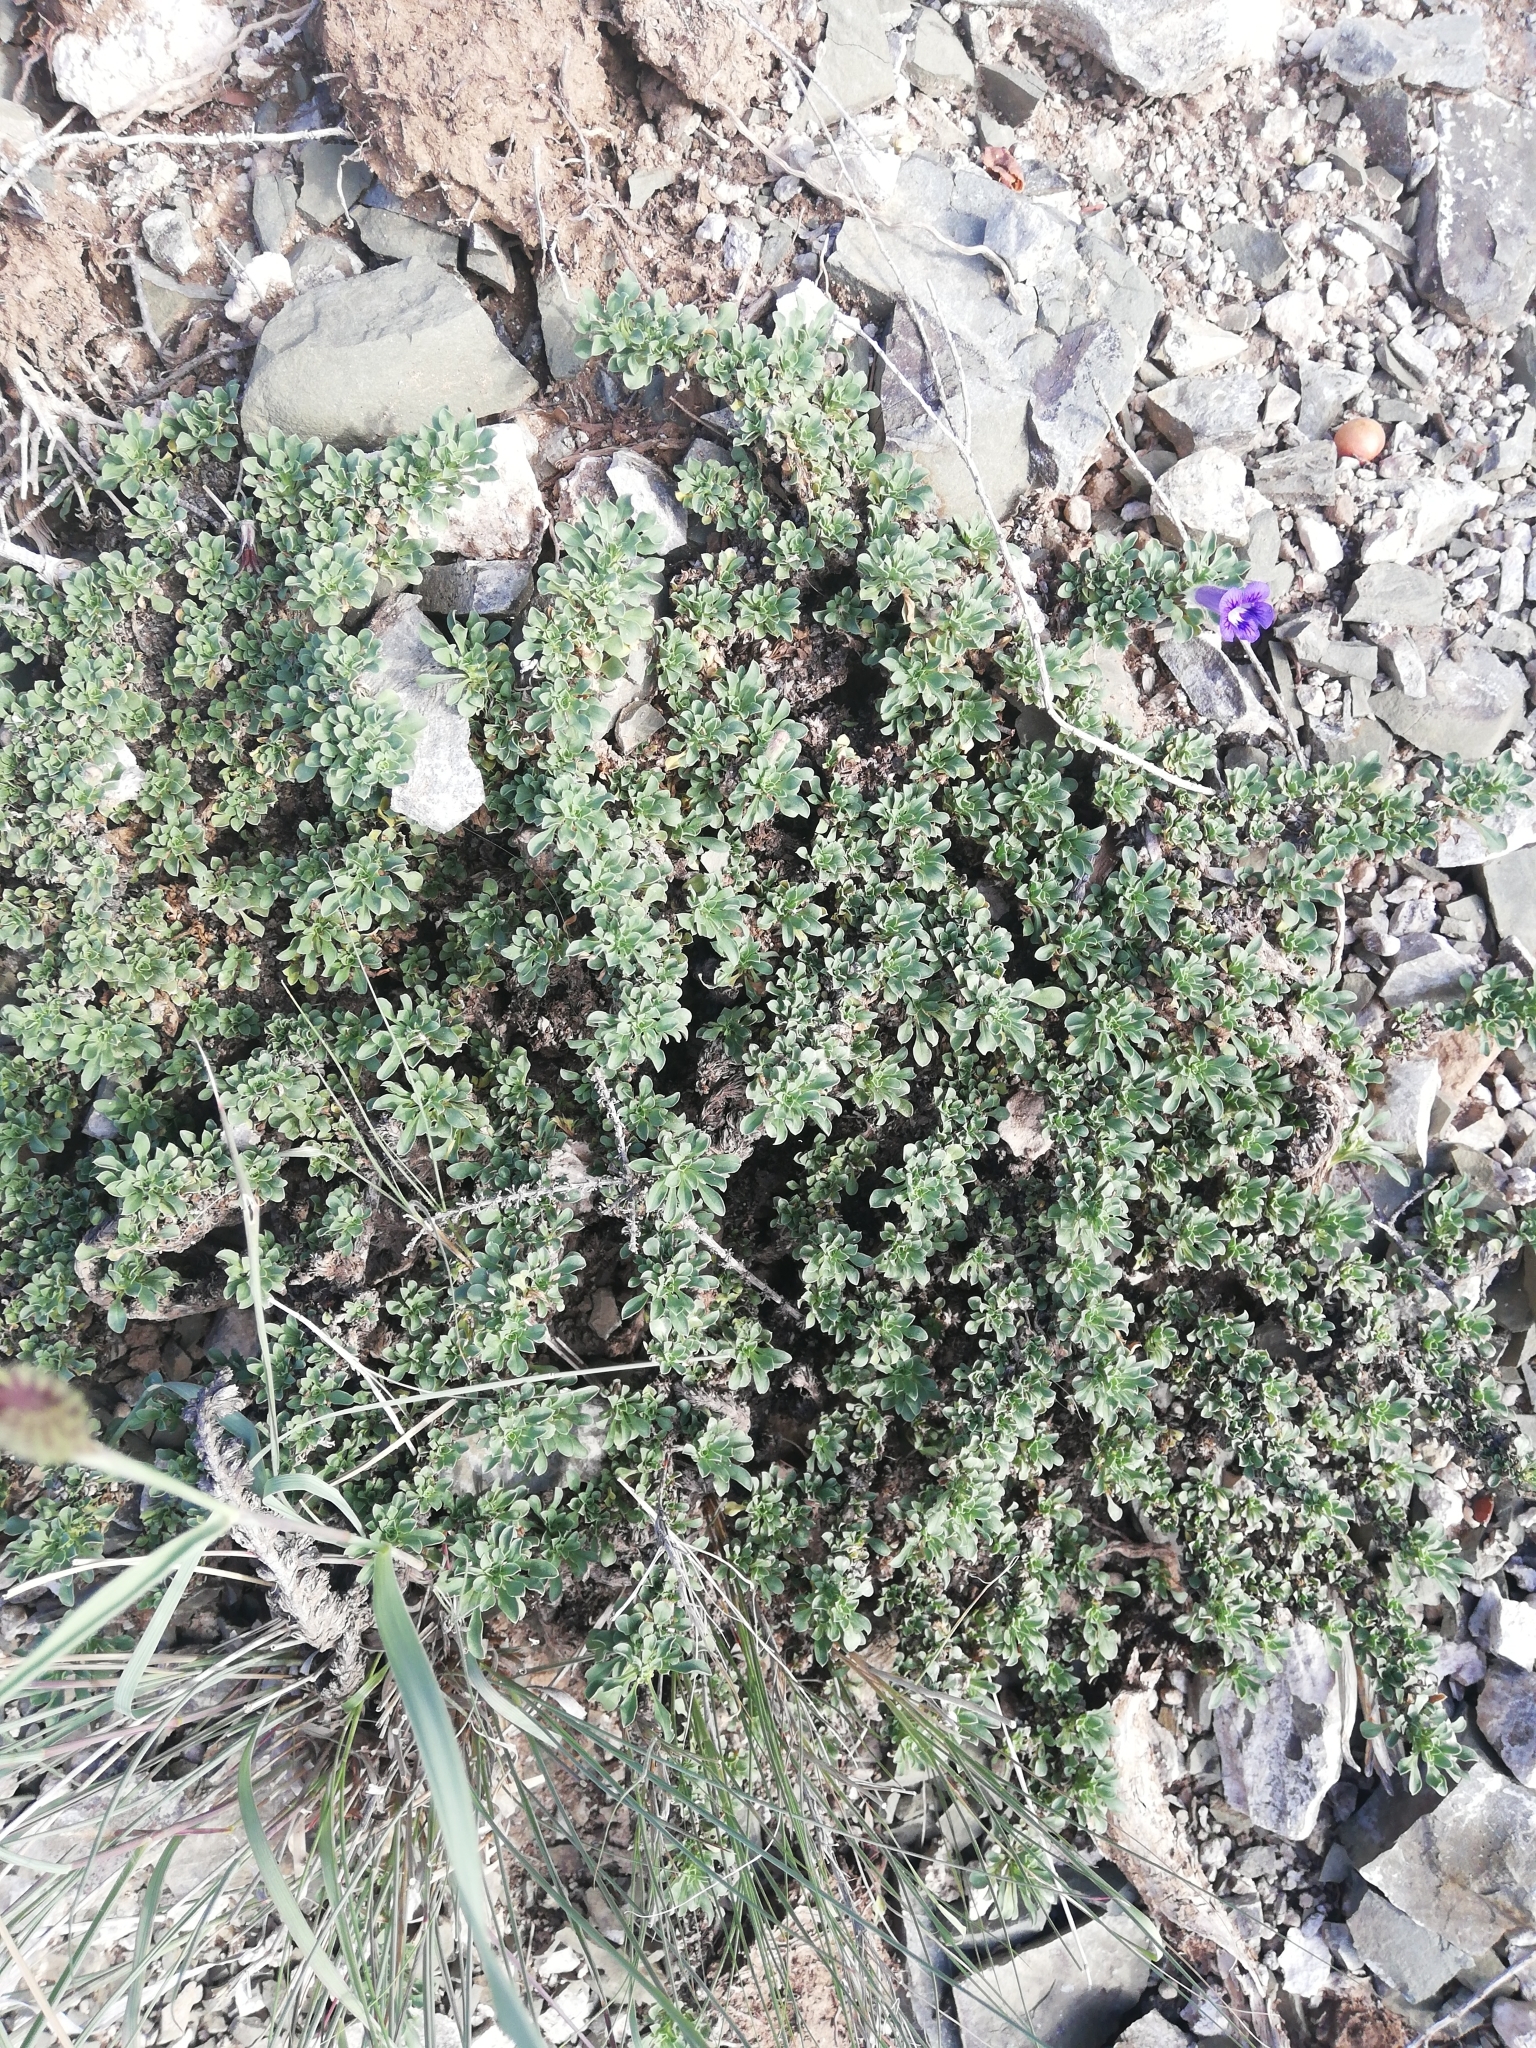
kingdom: Plantae
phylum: Tracheophyta
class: Magnoliopsida
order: Lamiales
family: Scrophulariaceae
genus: Aptosimum
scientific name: Aptosimum procumbens
